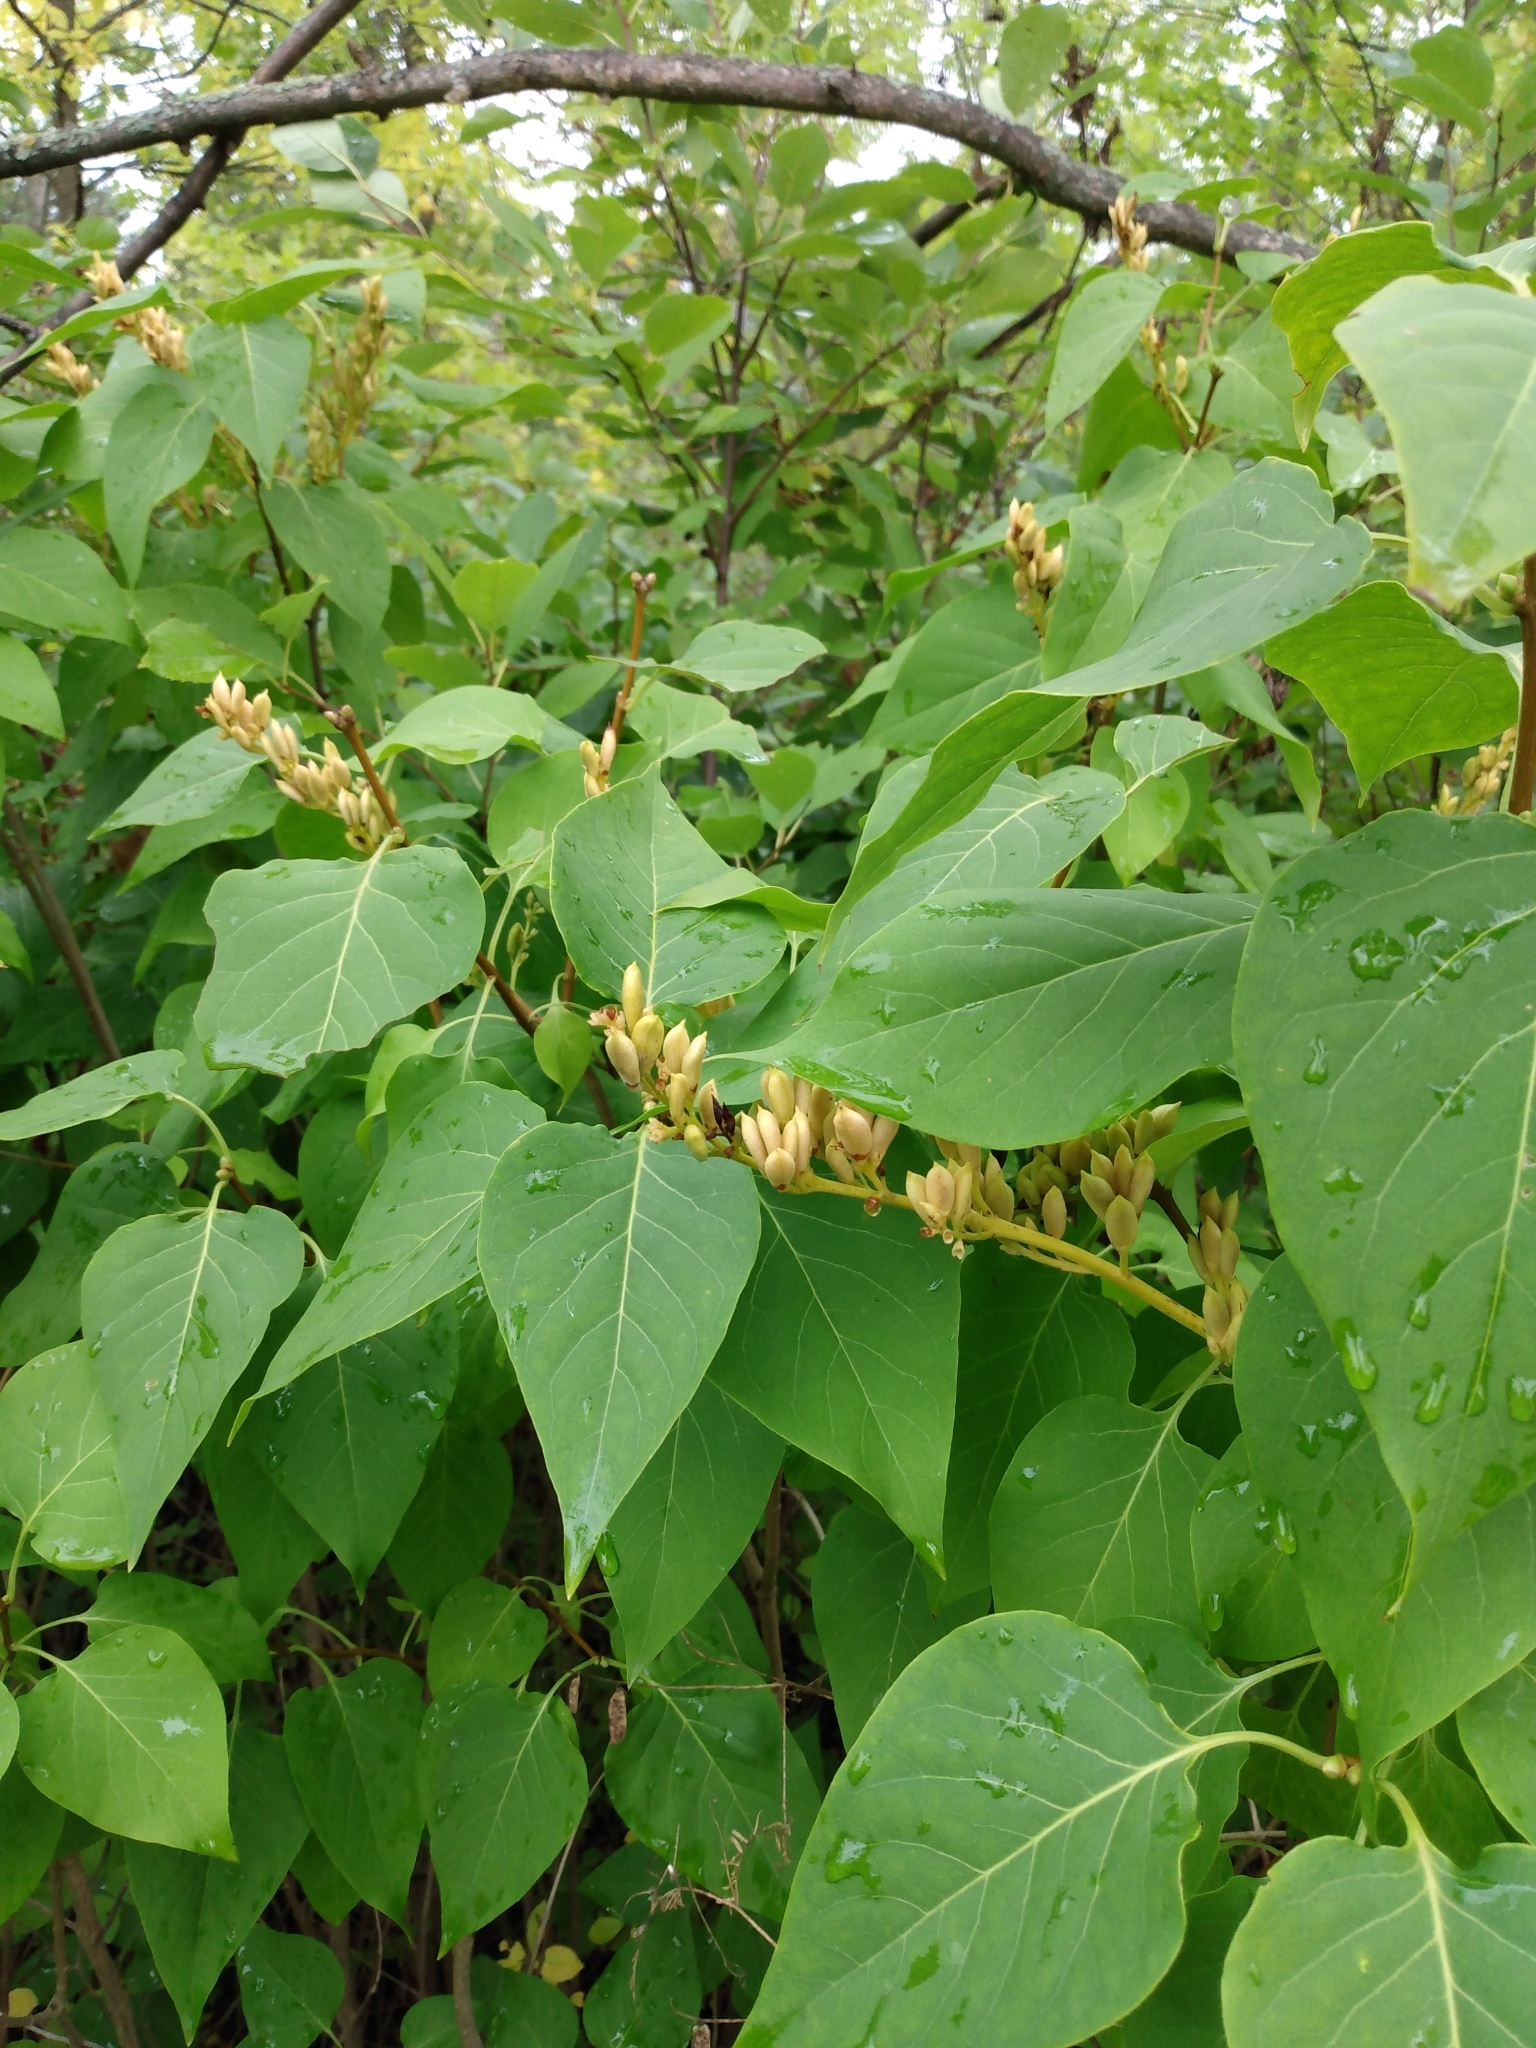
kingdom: Plantae
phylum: Tracheophyta
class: Magnoliopsida
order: Lamiales
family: Oleaceae
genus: Syringa
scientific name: Syringa vulgaris
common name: Common lilac
